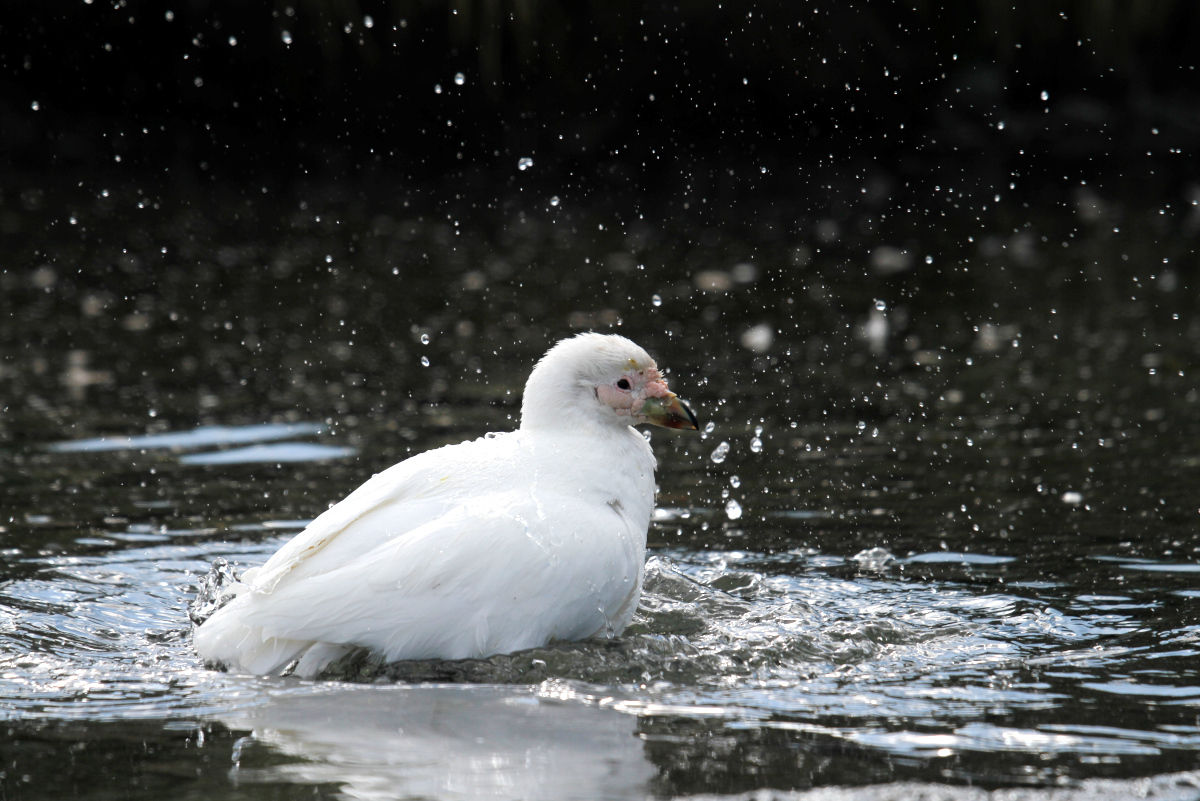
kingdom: Animalia
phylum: Chordata
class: Aves
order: Charadriiformes
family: Chionidae
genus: Chionis
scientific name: Chionis albus
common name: Snowy sheathbill
